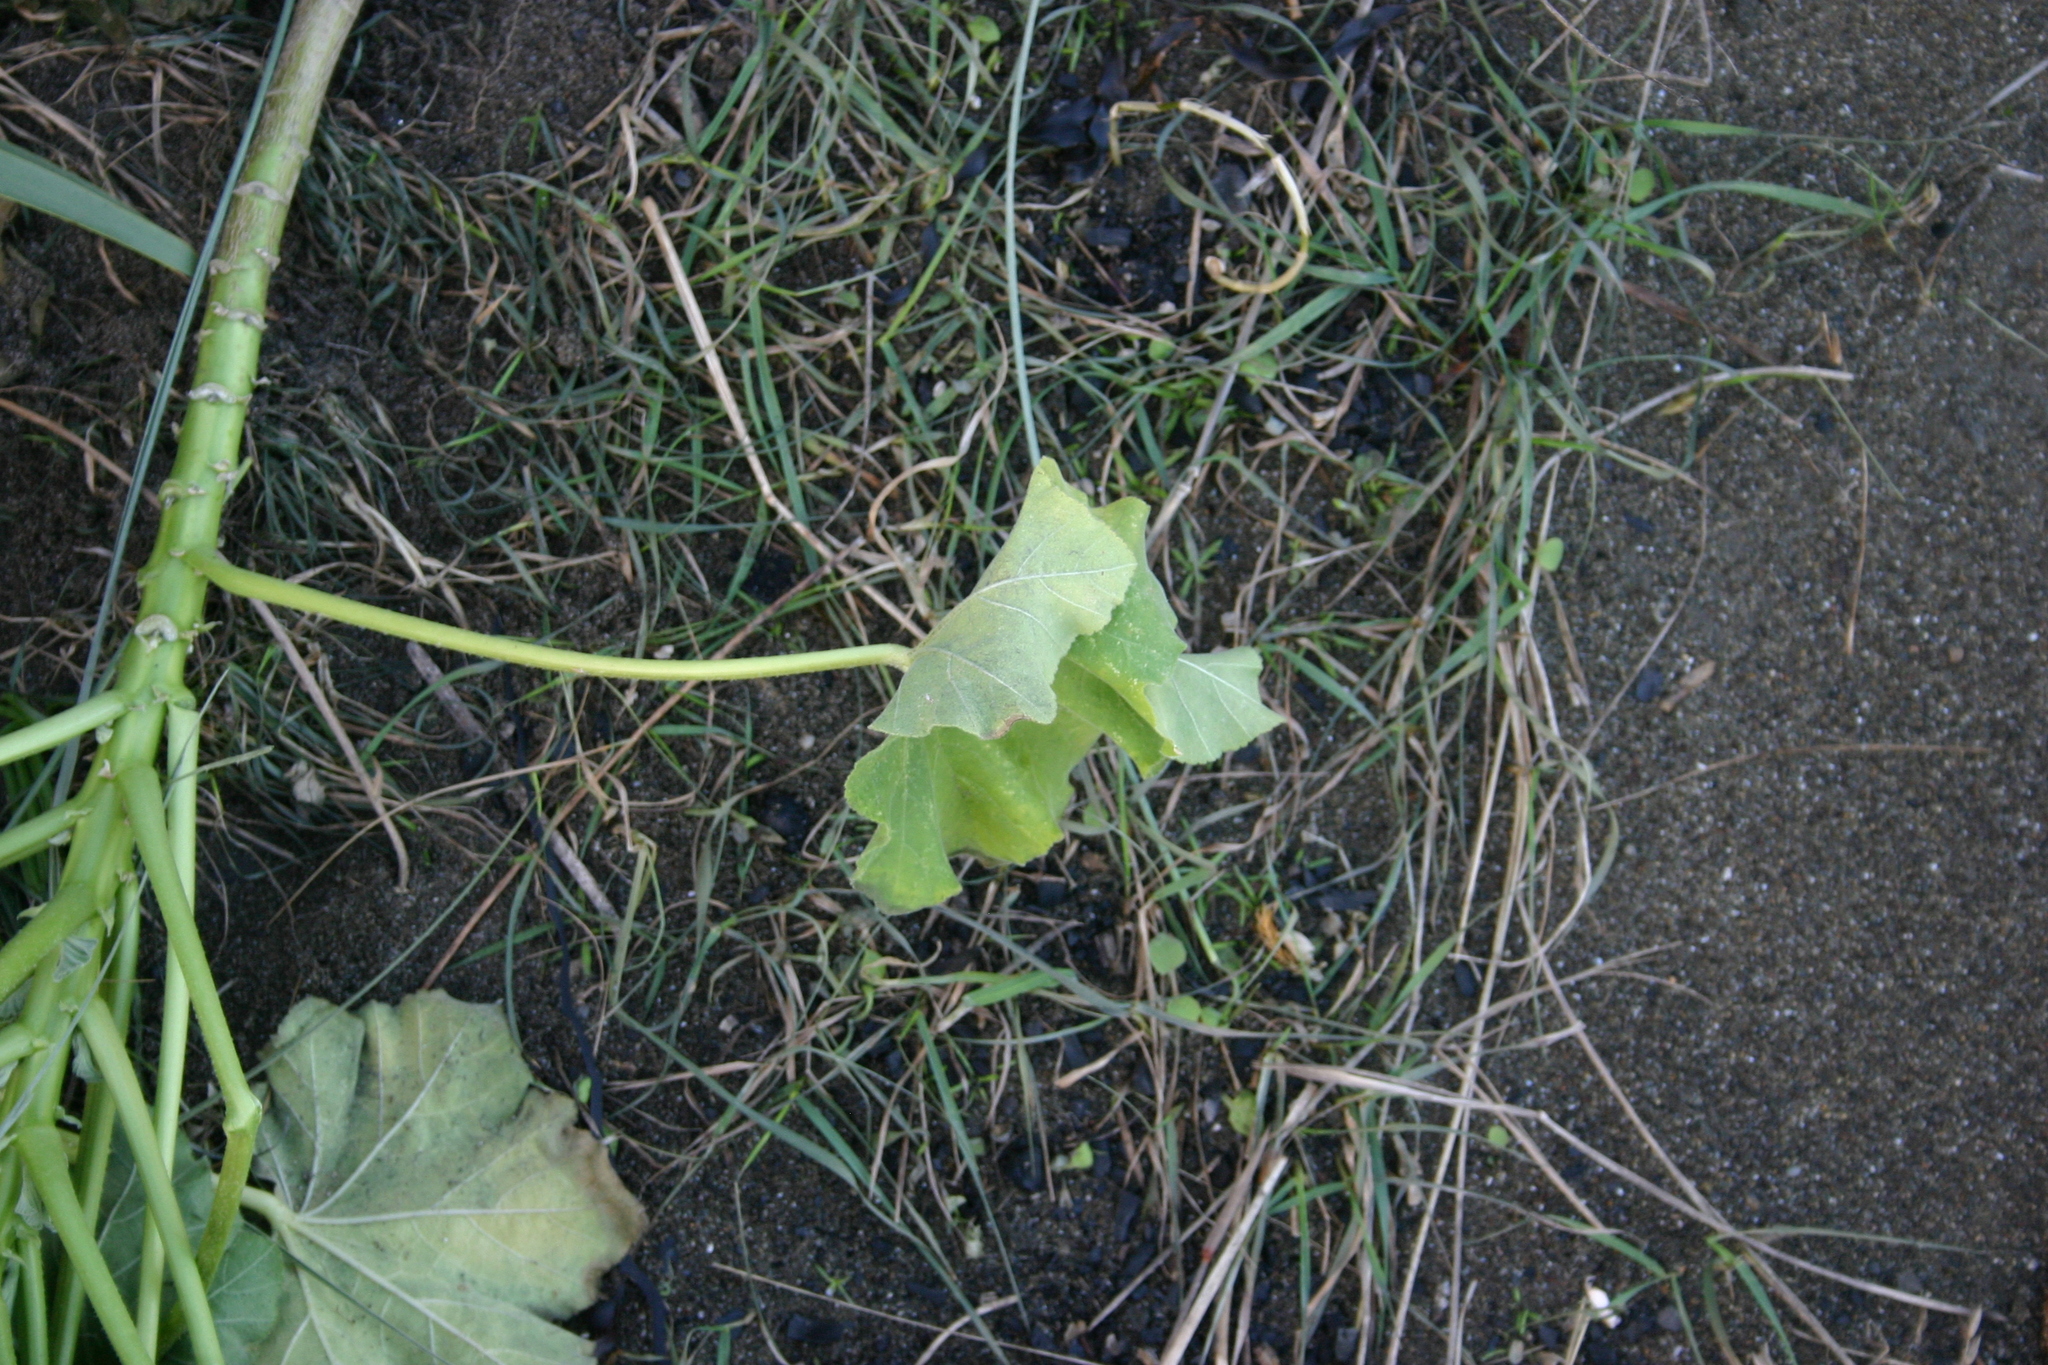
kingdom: Plantae
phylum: Tracheophyta
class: Magnoliopsida
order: Malvales
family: Malvaceae
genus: Malva
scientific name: Malva arborea
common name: Tree mallow
